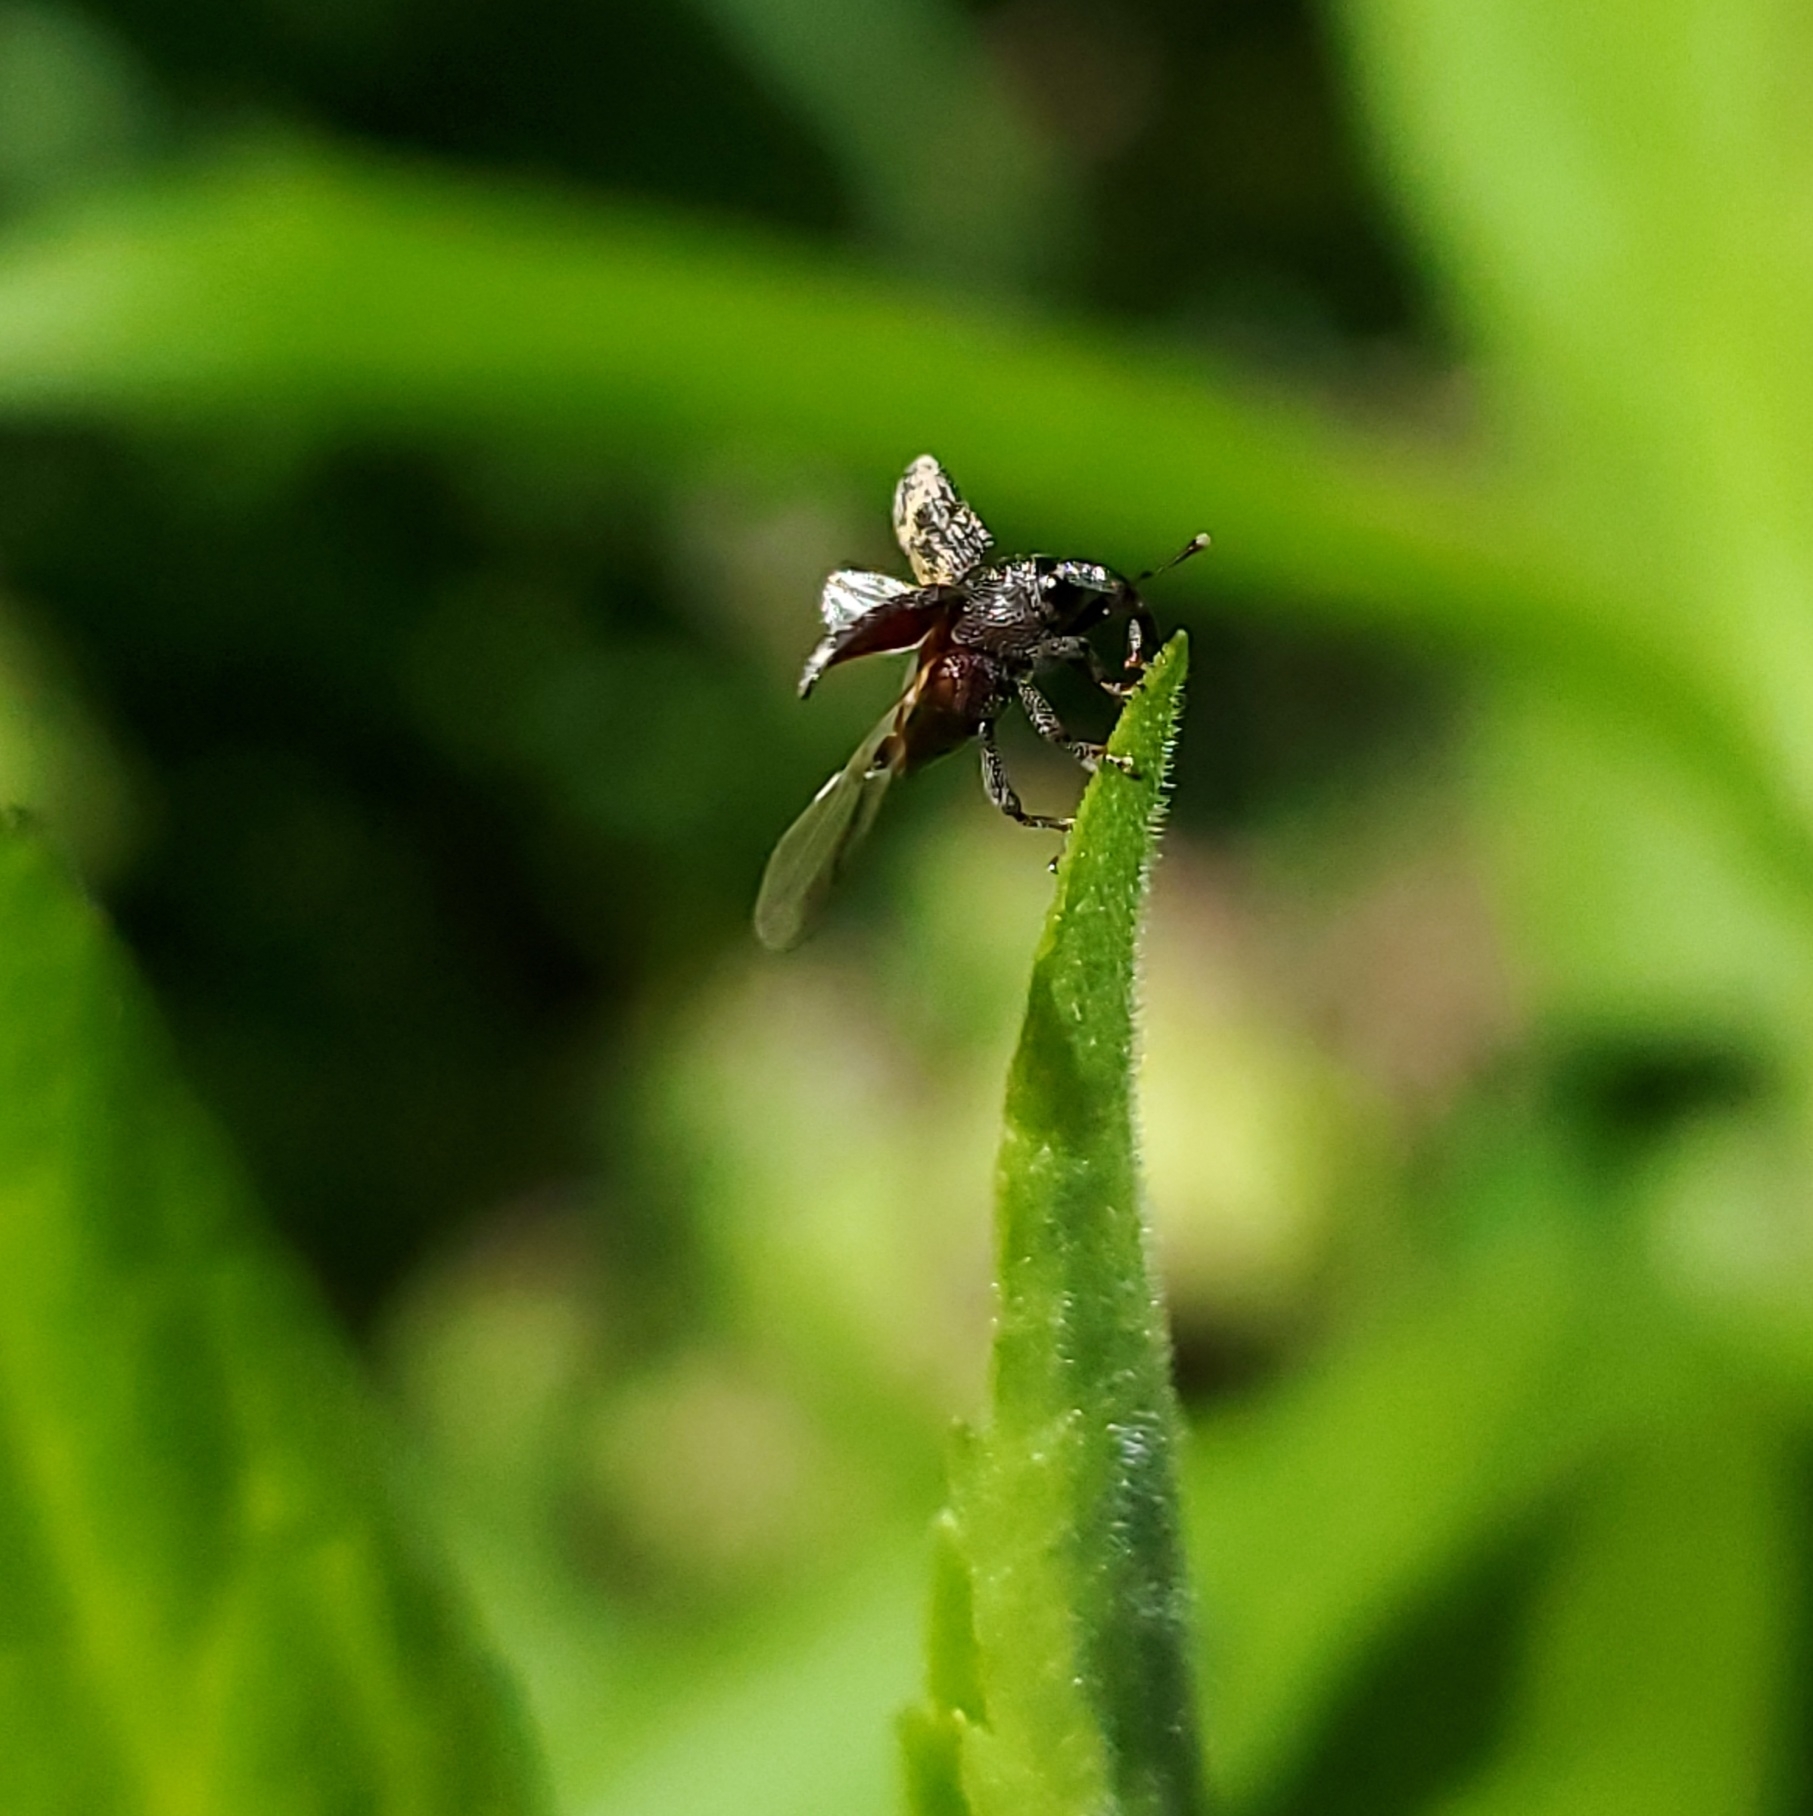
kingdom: Animalia
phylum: Arthropoda
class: Insecta
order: Coleoptera
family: Curculionidae
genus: Glyptobaris
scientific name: Glyptobaris lecontei
